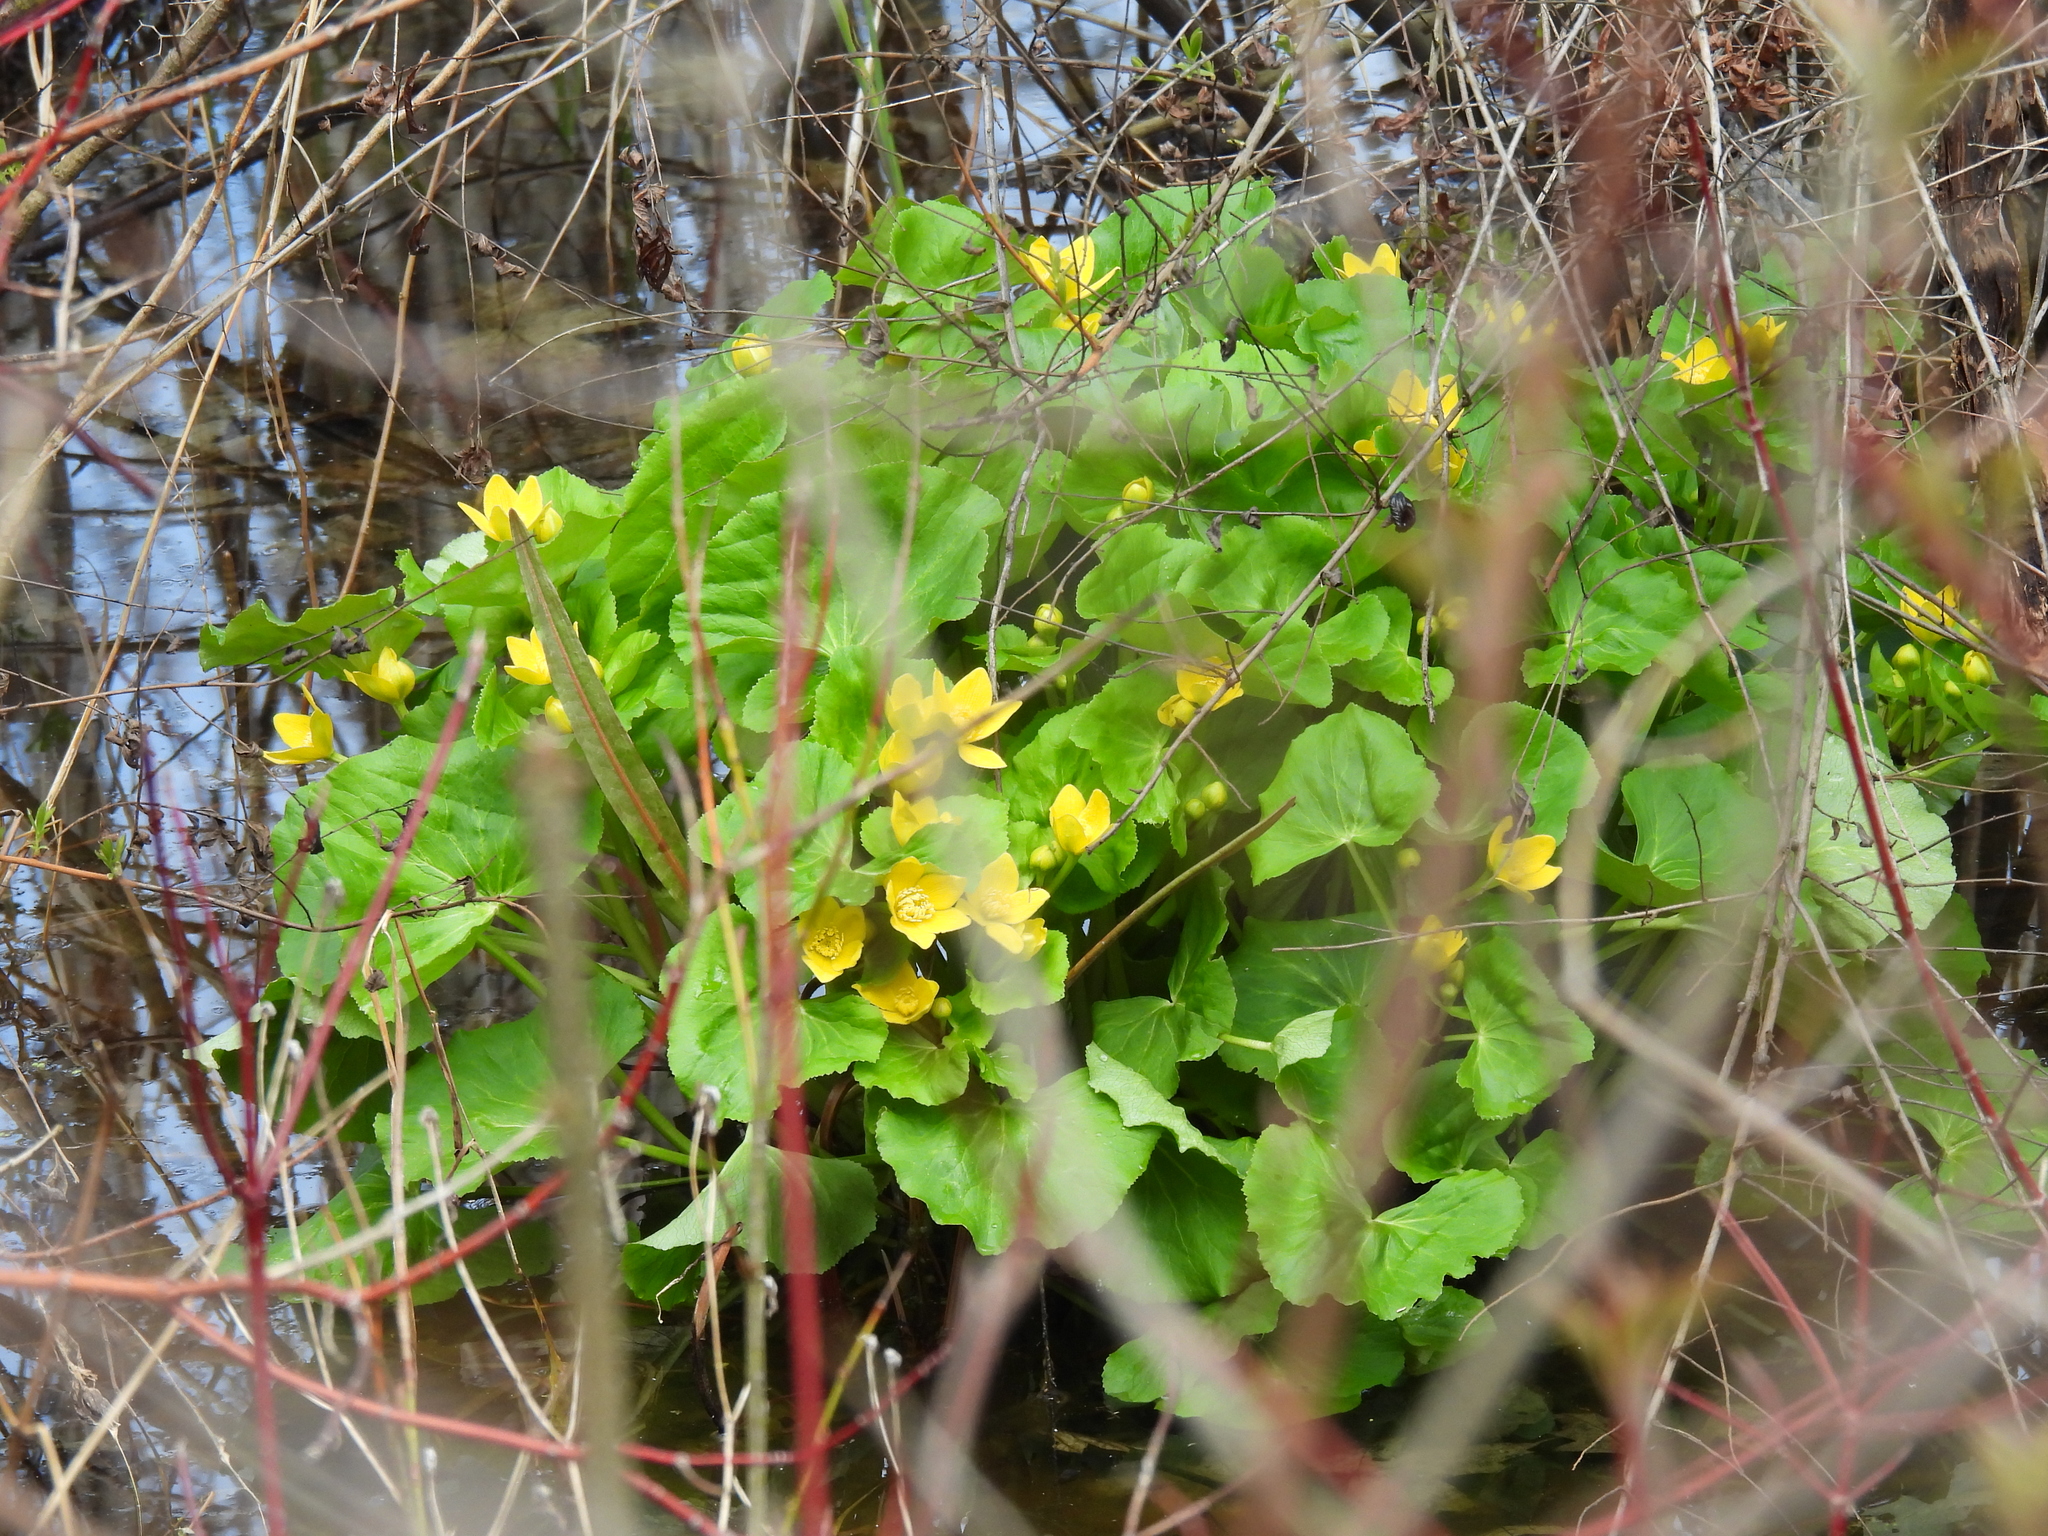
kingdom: Plantae
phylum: Tracheophyta
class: Magnoliopsida
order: Ranunculales
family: Ranunculaceae
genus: Caltha
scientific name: Caltha palustris
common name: Marsh marigold
